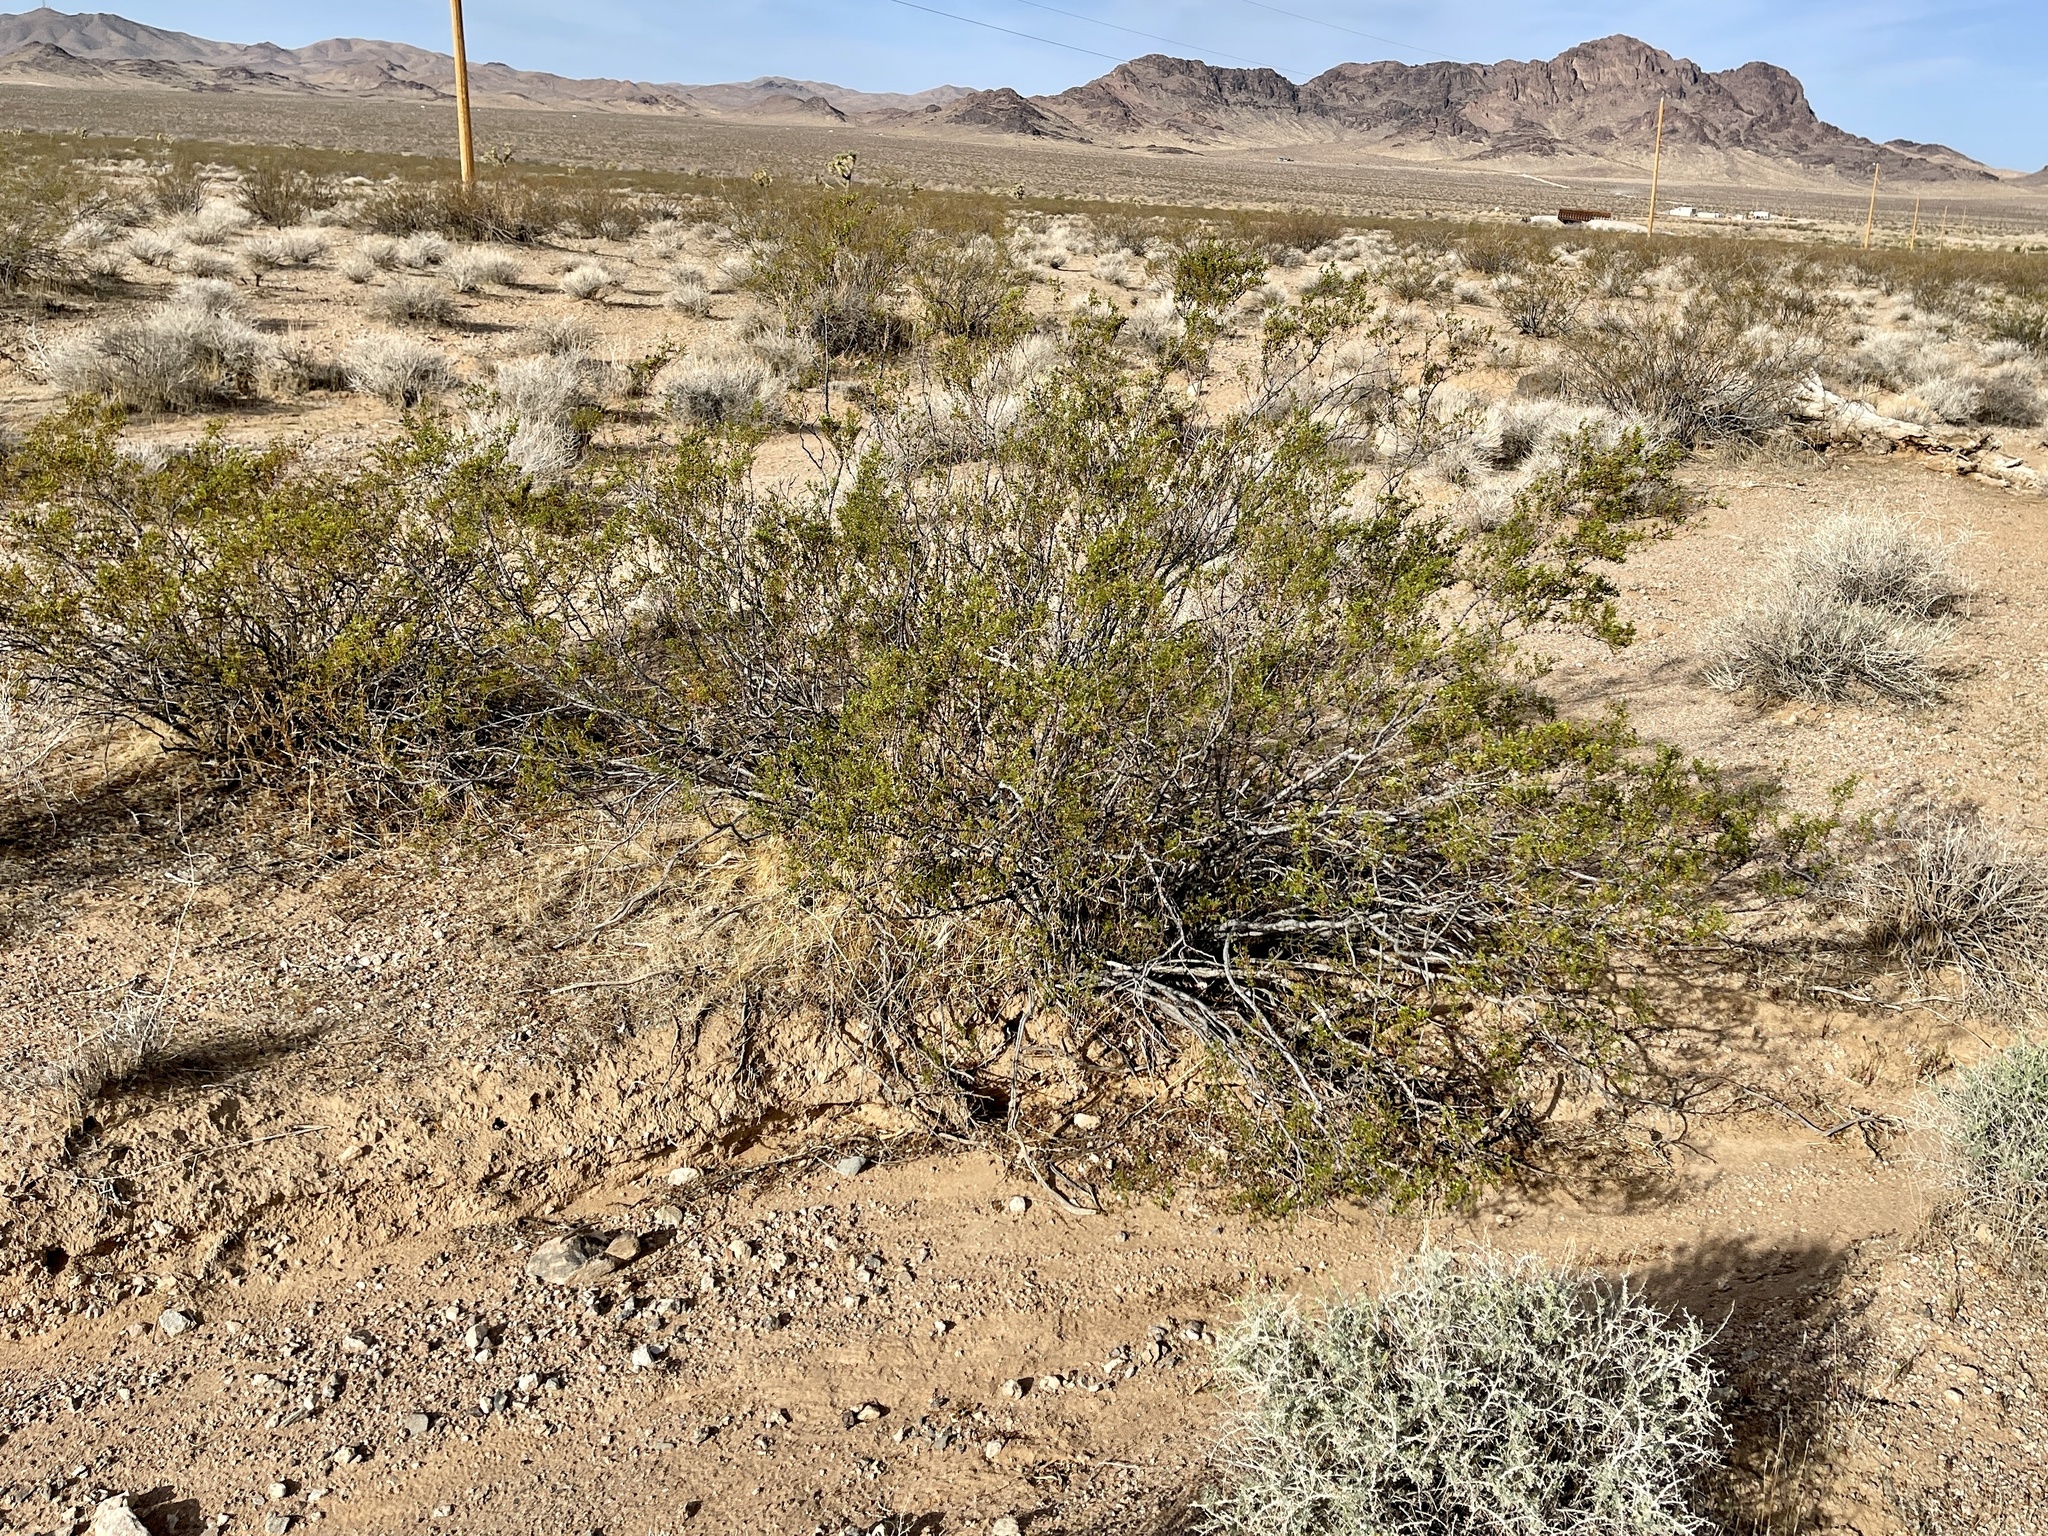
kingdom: Plantae
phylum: Tracheophyta
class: Magnoliopsida
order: Zygophyllales
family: Zygophyllaceae
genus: Larrea
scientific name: Larrea tridentata
